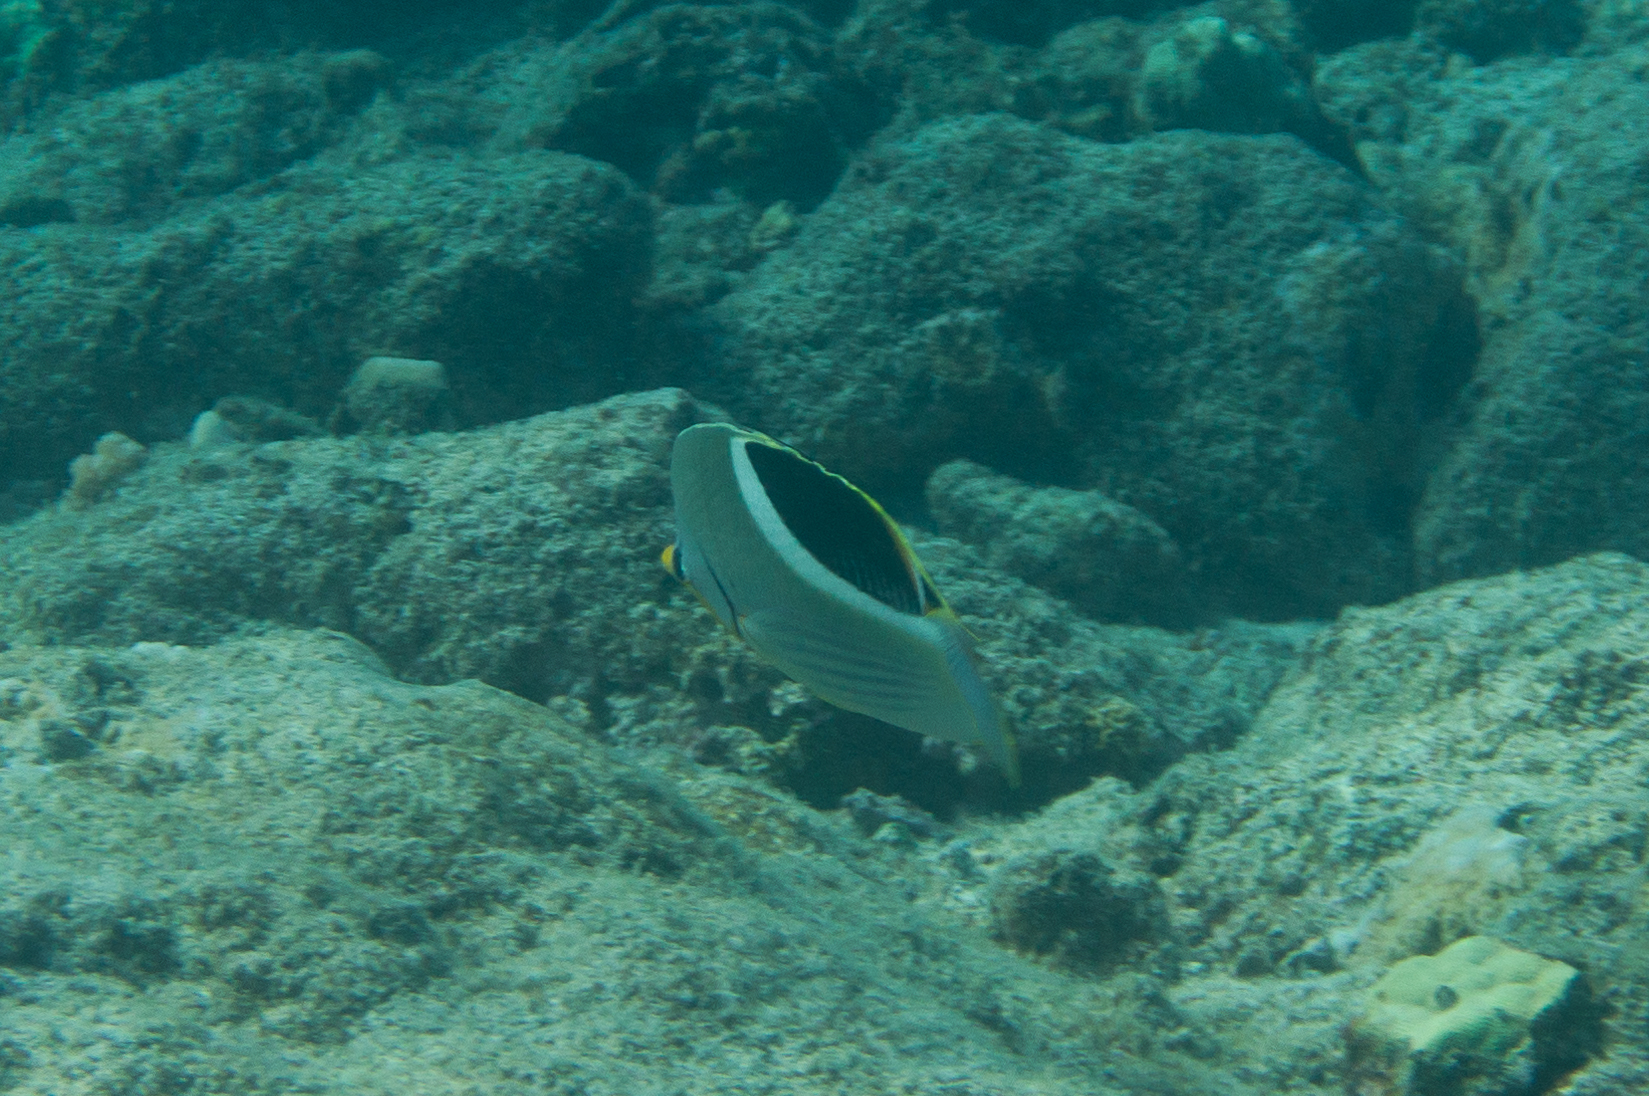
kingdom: Animalia
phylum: Chordata
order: Perciformes
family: Chaetodontidae
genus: Chaetodon
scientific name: Chaetodon ephippium
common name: Saddled butterflyfish
